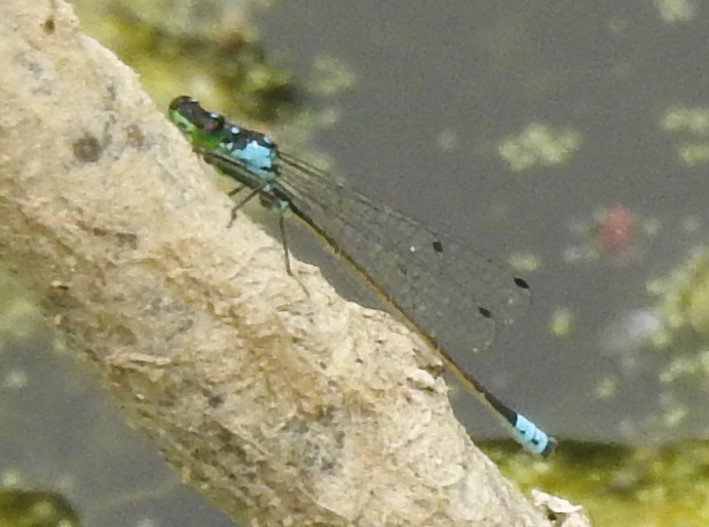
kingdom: Animalia
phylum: Arthropoda
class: Insecta
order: Odonata
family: Coenagrionidae
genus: Ischnura
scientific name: Ischnura cervula
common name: Pacific forktail
